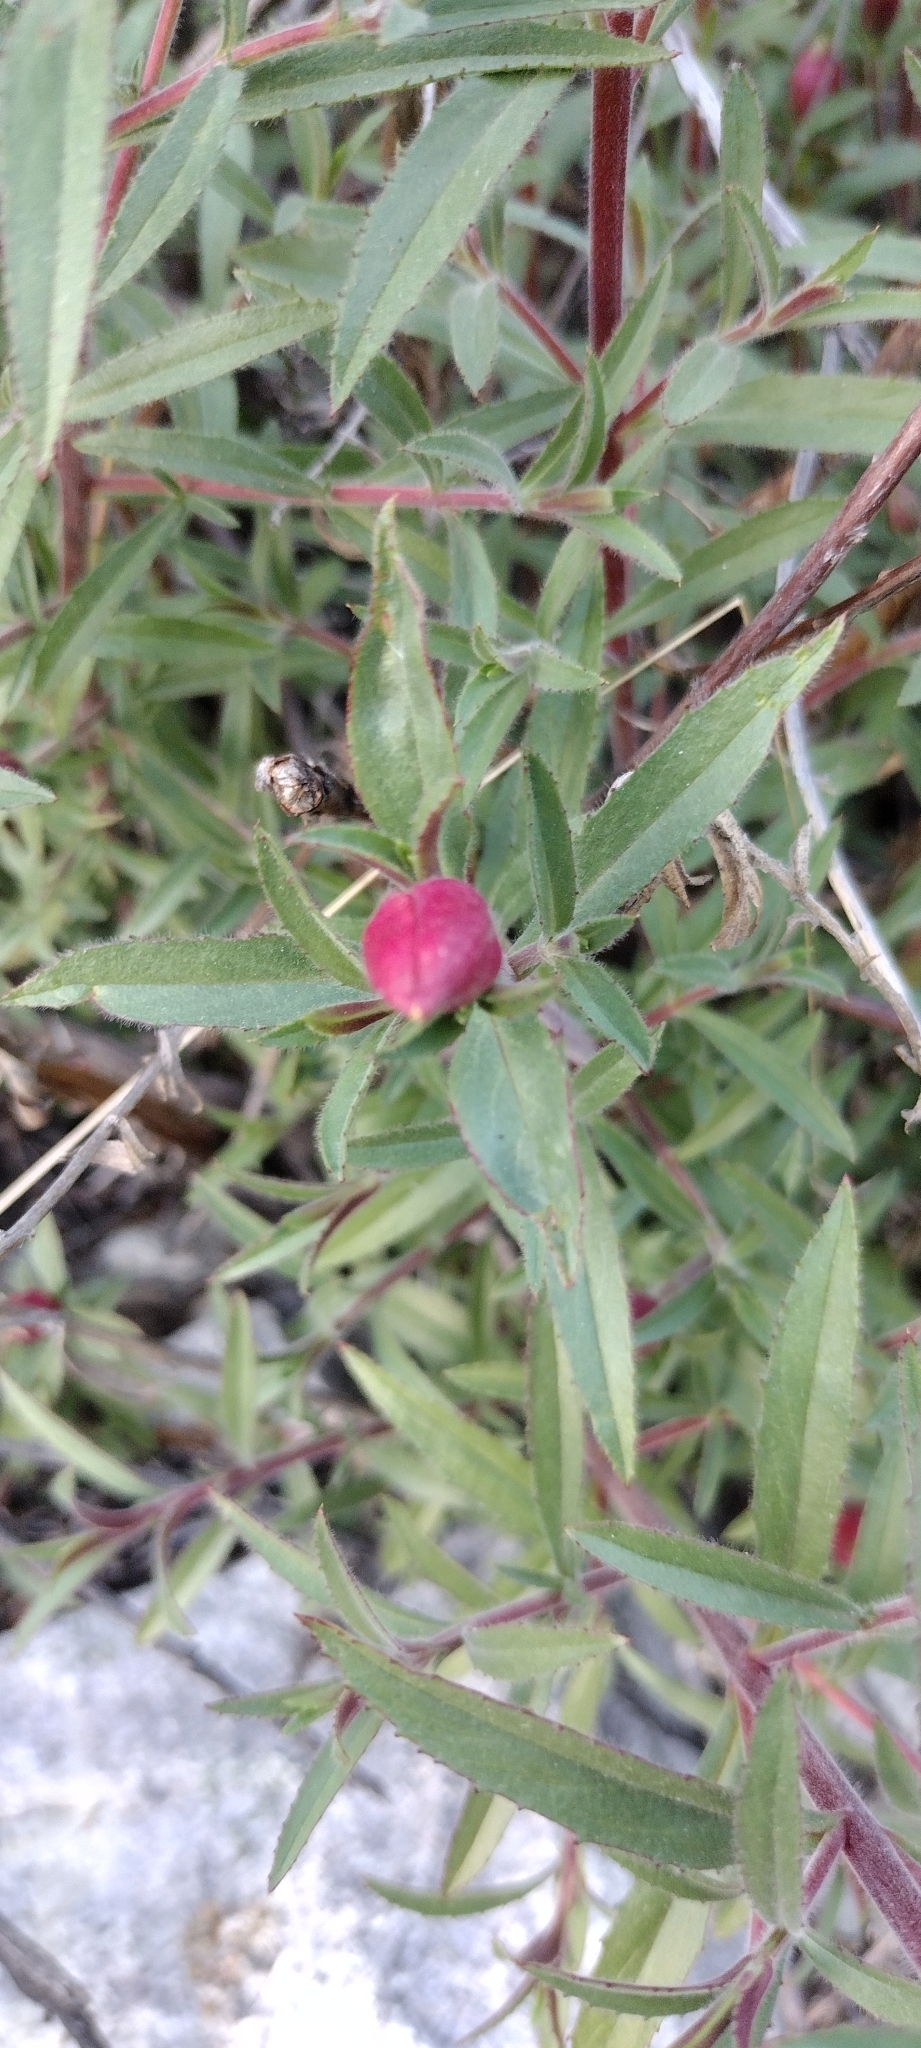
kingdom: Plantae
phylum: Tracheophyta
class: Magnoliopsida
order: Myrtales
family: Onagraceae
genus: Epilobium
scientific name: Epilobium canum
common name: California-fuchsia
